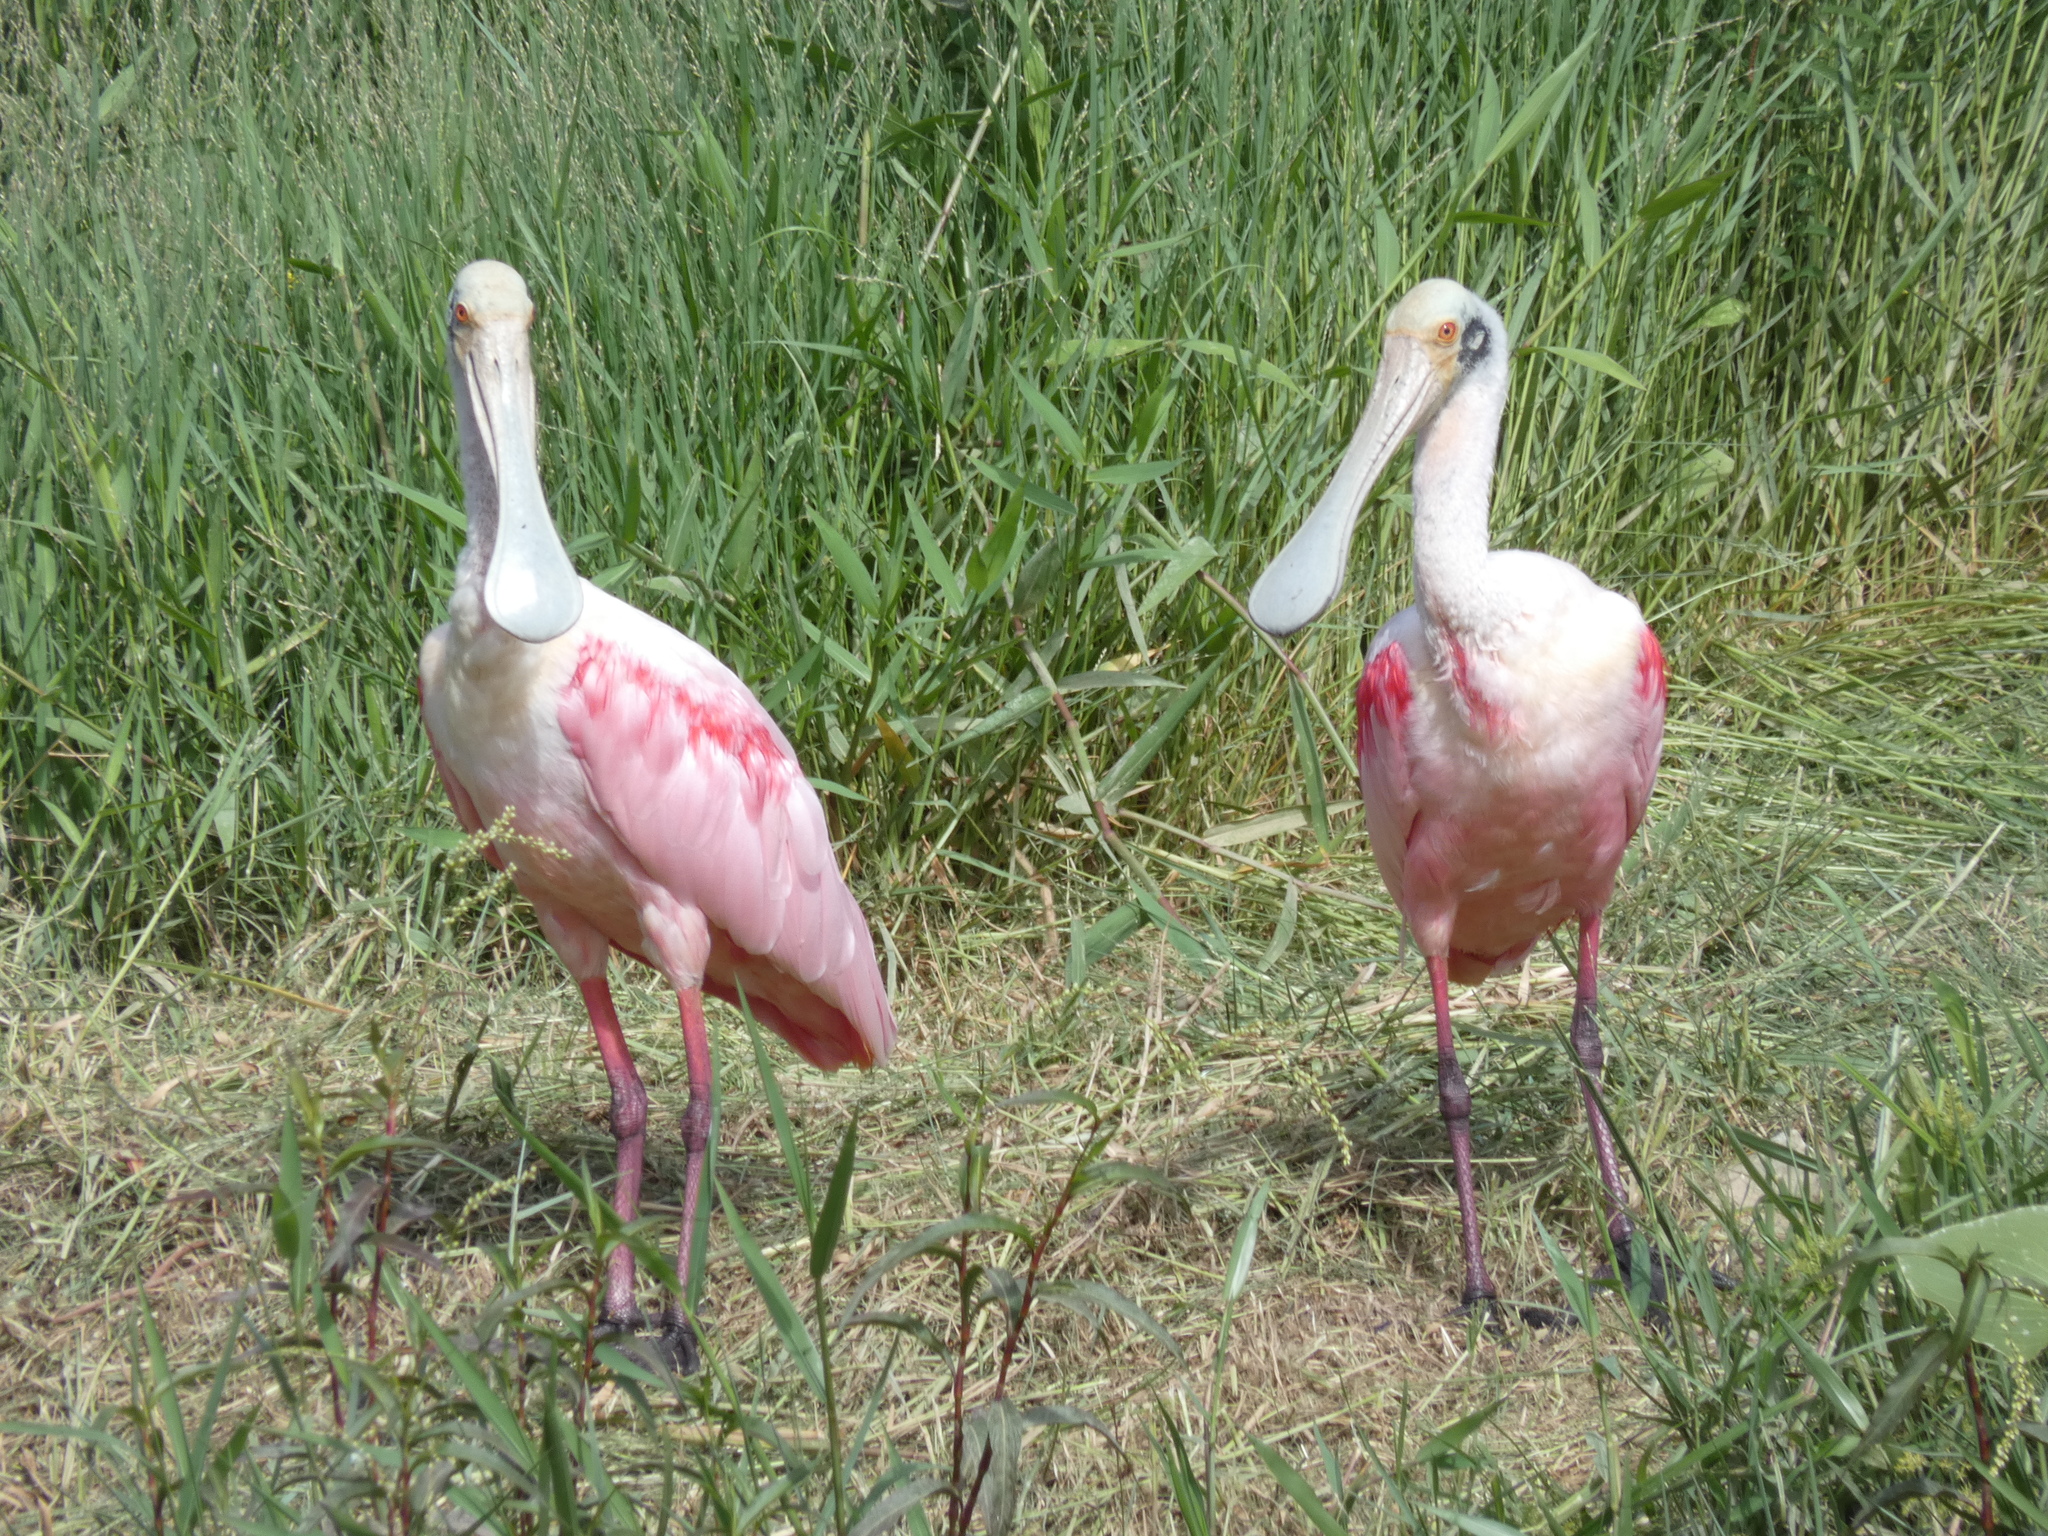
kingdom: Animalia
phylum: Chordata
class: Aves
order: Pelecaniformes
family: Threskiornithidae
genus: Platalea
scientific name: Platalea ajaja
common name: Roseate spoonbill
